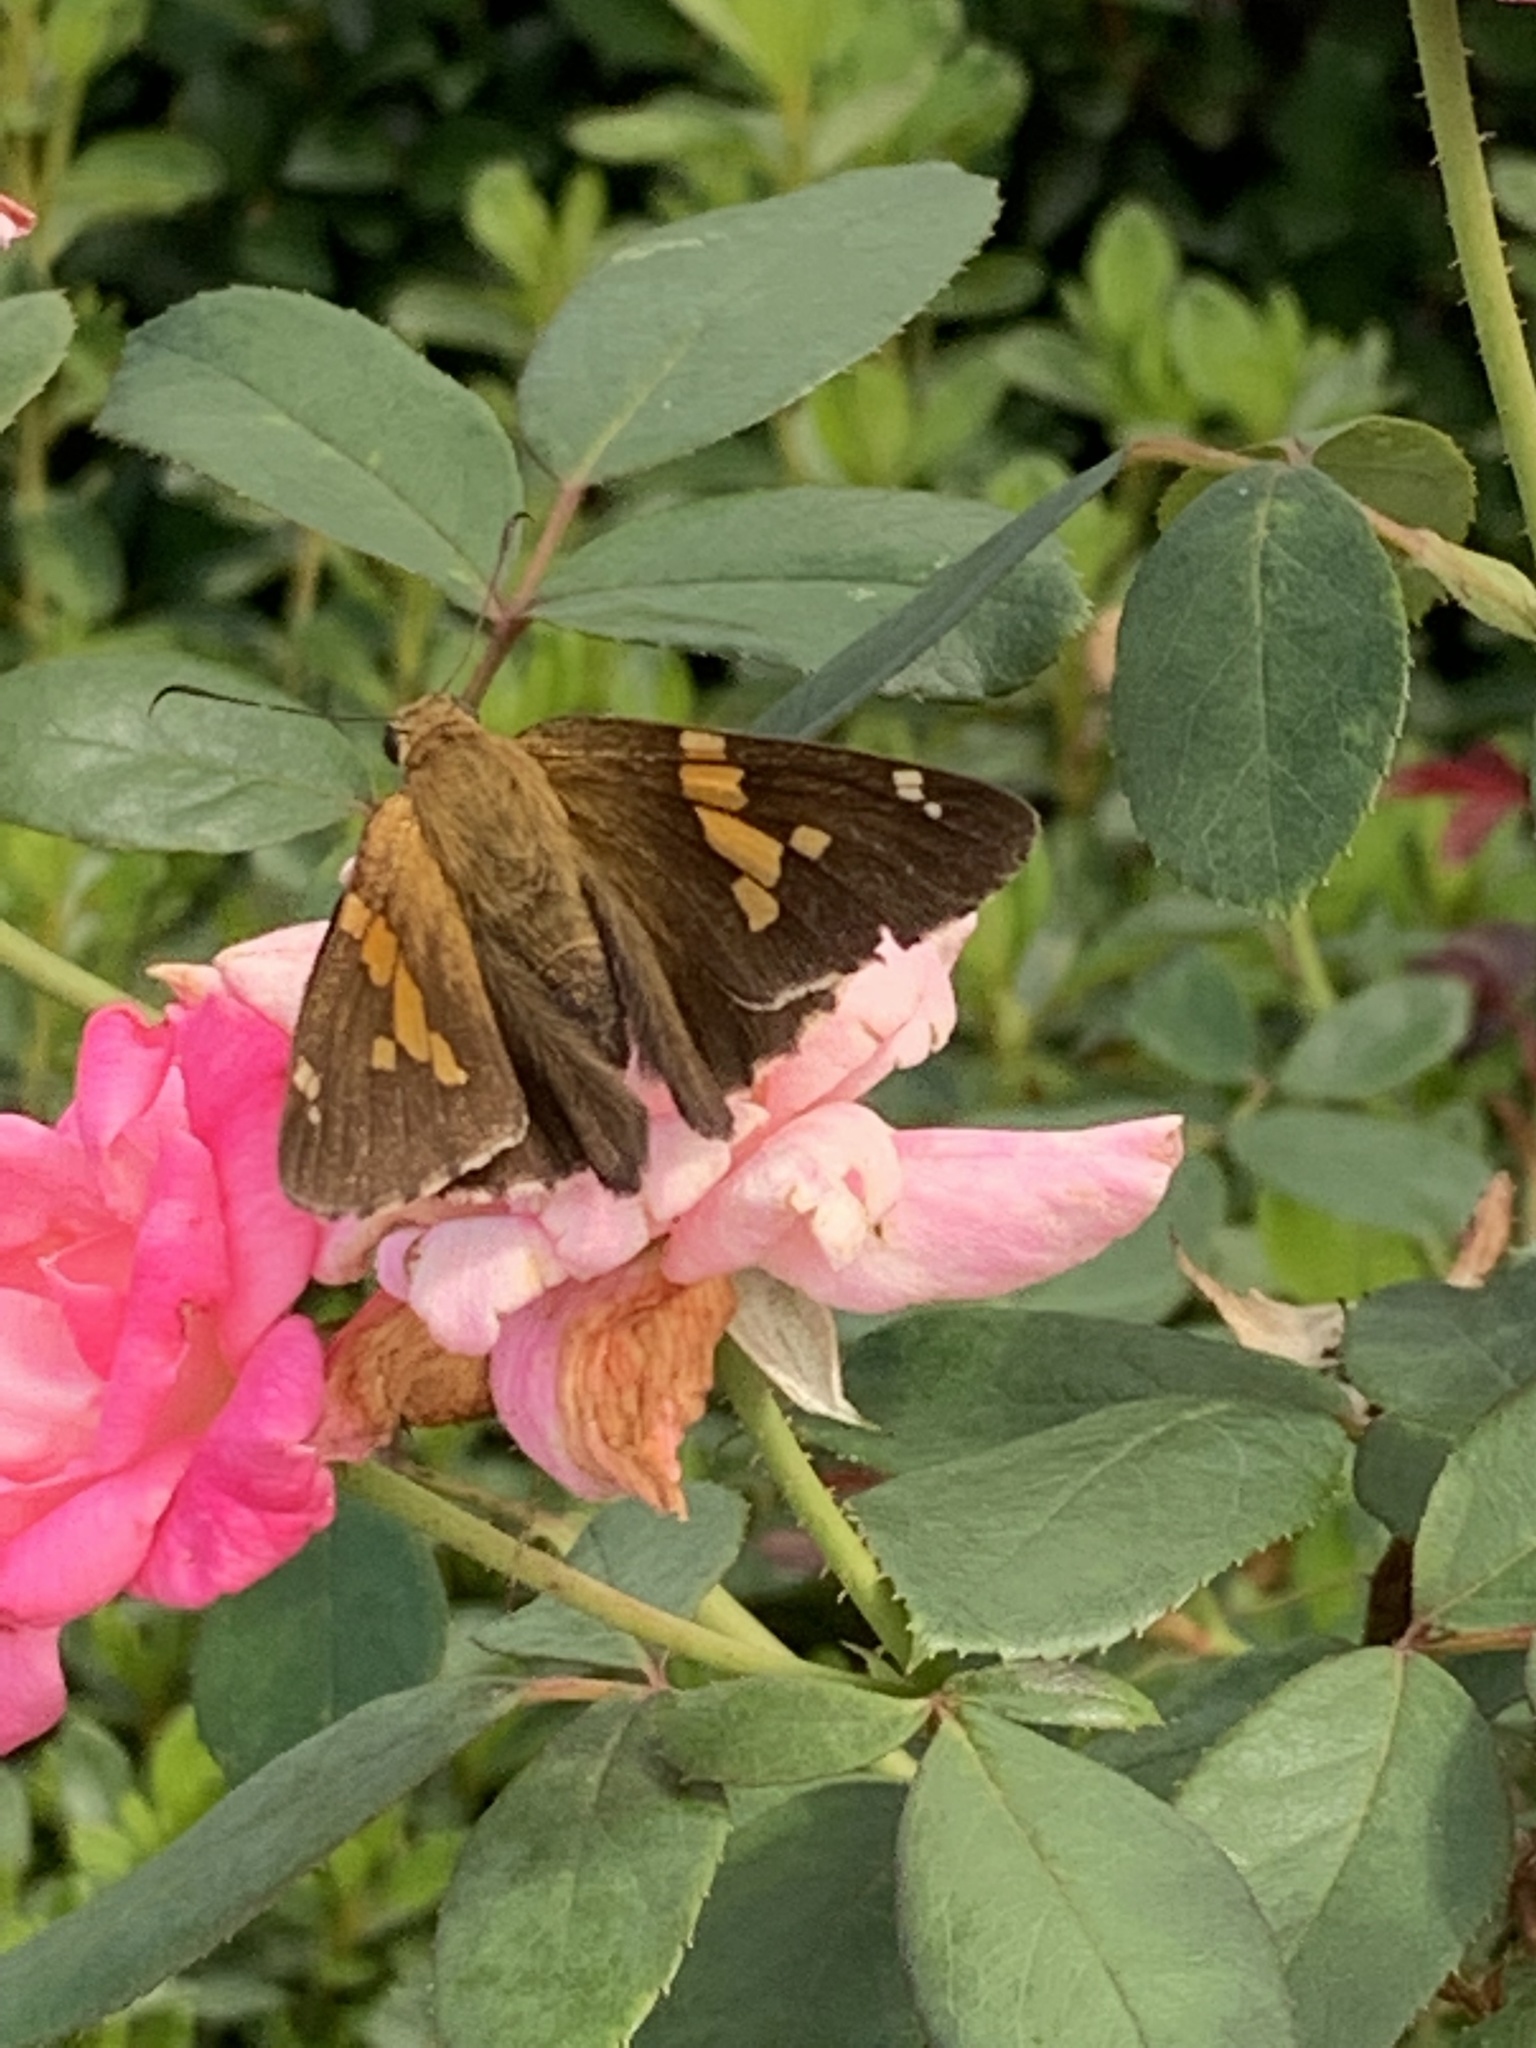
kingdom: Animalia
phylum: Arthropoda
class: Insecta
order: Lepidoptera
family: Hesperiidae
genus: Epargyreus
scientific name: Epargyreus clarus
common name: Silver-spotted skipper
